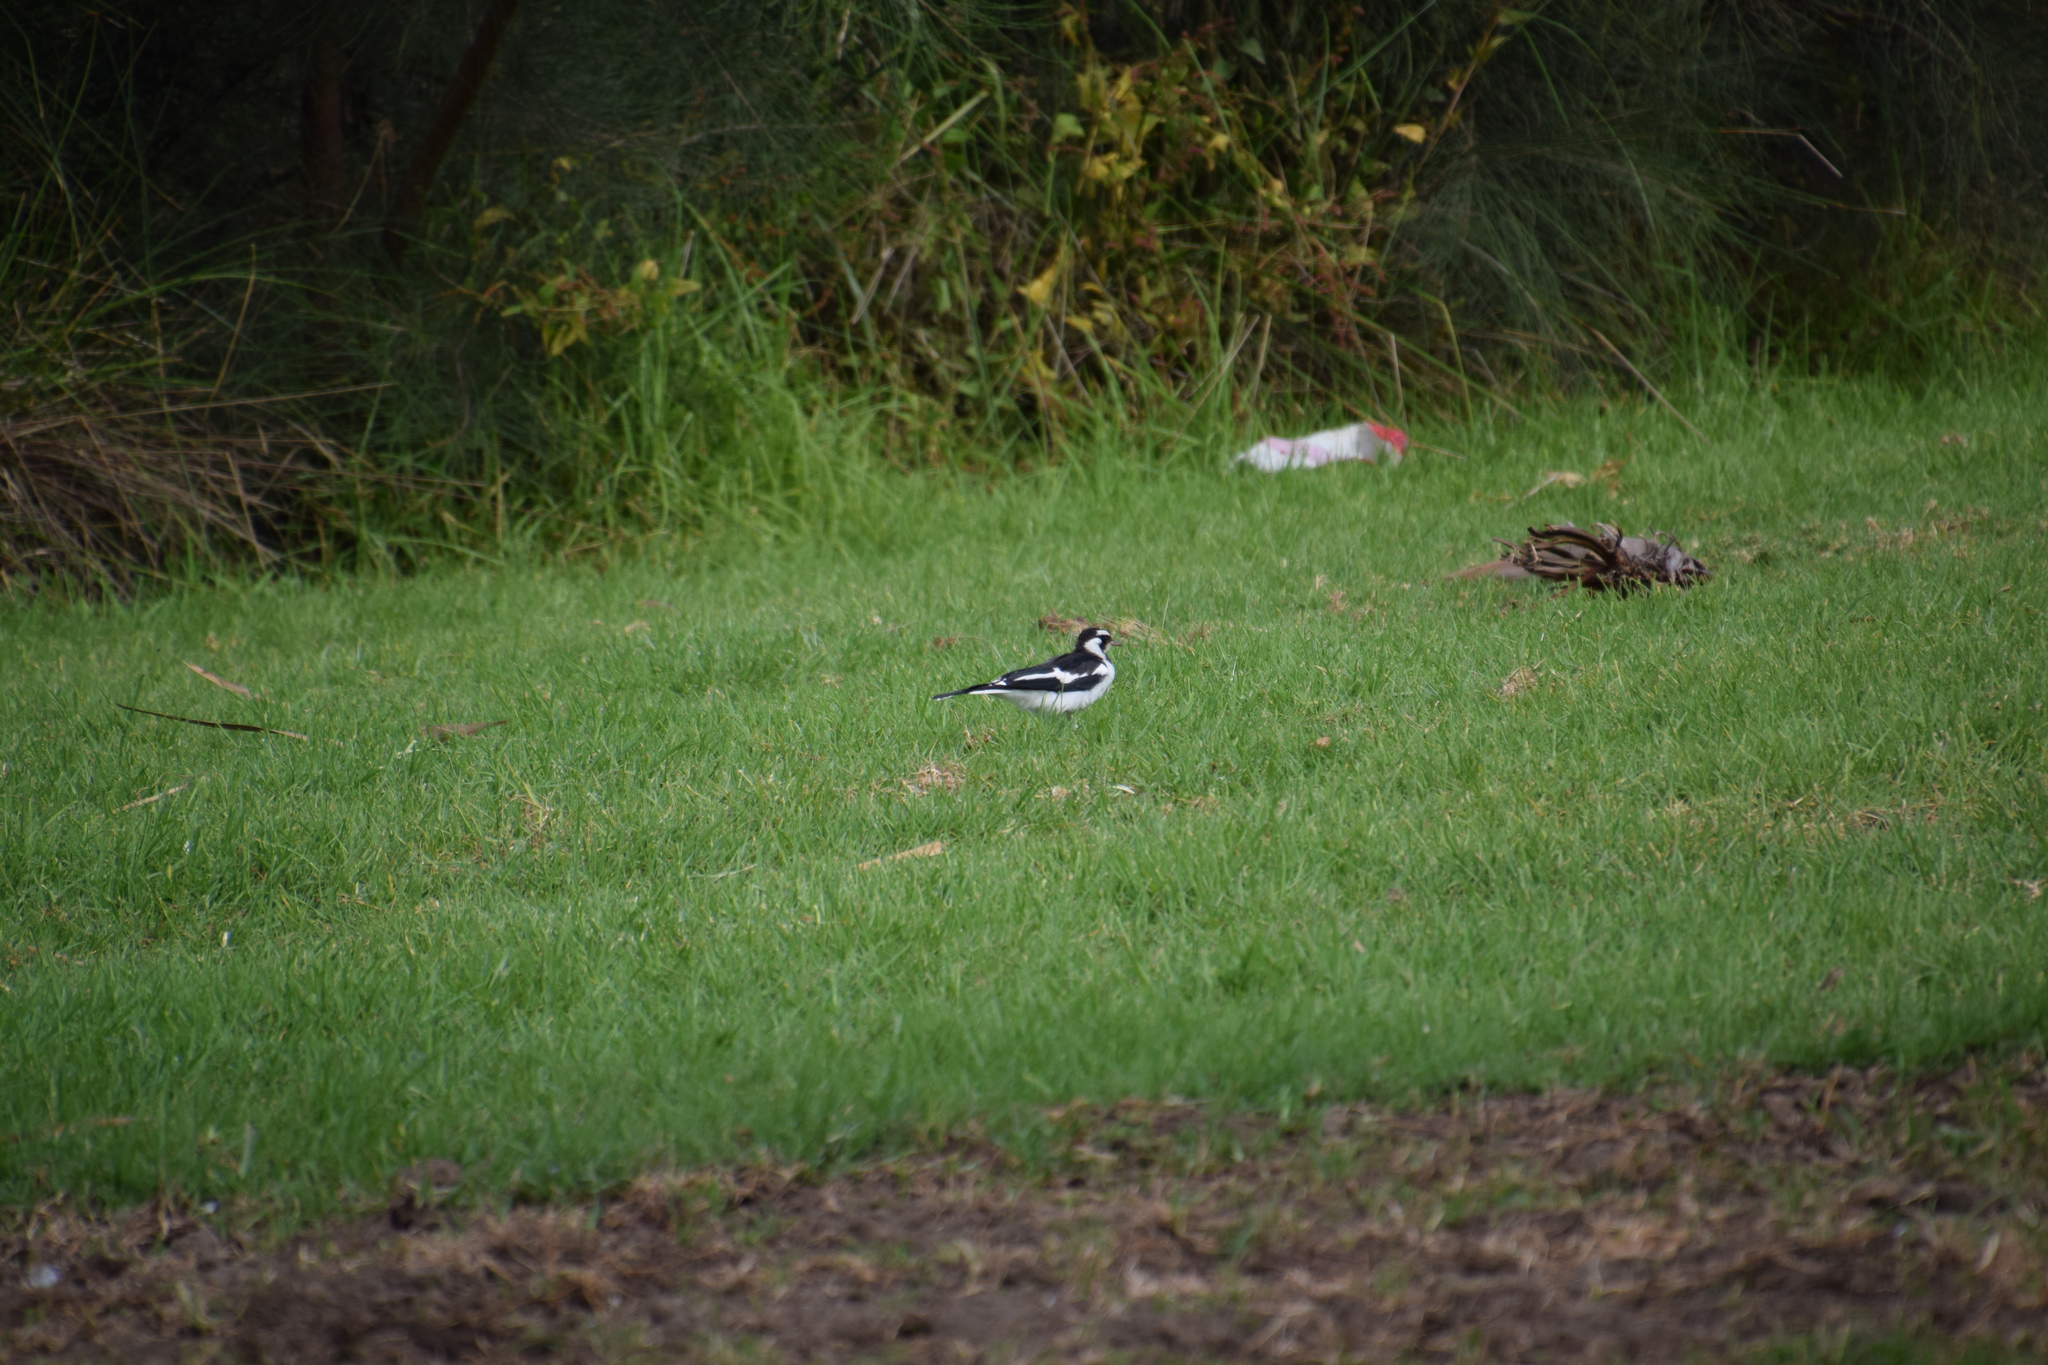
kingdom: Animalia
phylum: Chordata
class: Aves
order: Passeriformes
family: Monarchidae
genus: Grallina
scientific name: Grallina cyanoleuca
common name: Magpie-lark
